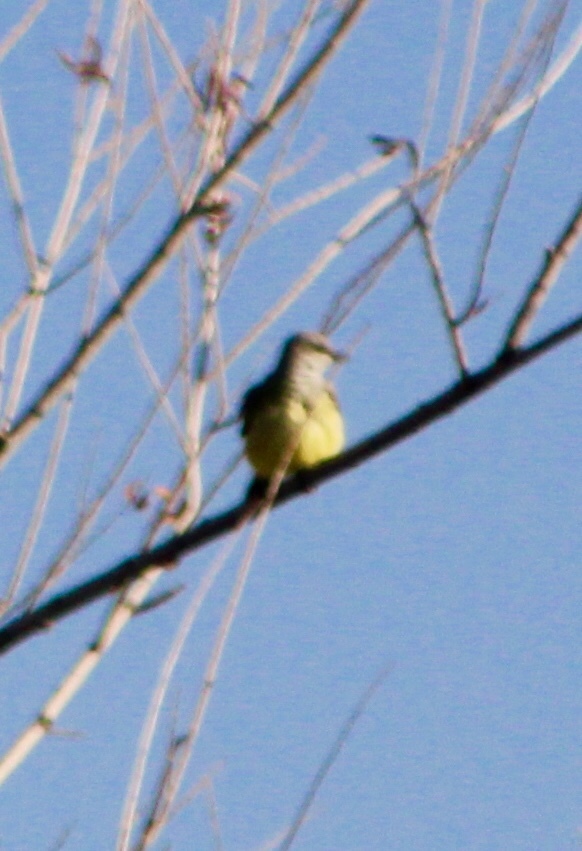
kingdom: Animalia
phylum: Chordata
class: Aves
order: Passeriformes
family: Tyrannidae
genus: Tyrannus
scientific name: Tyrannus verticalis
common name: Western kingbird
